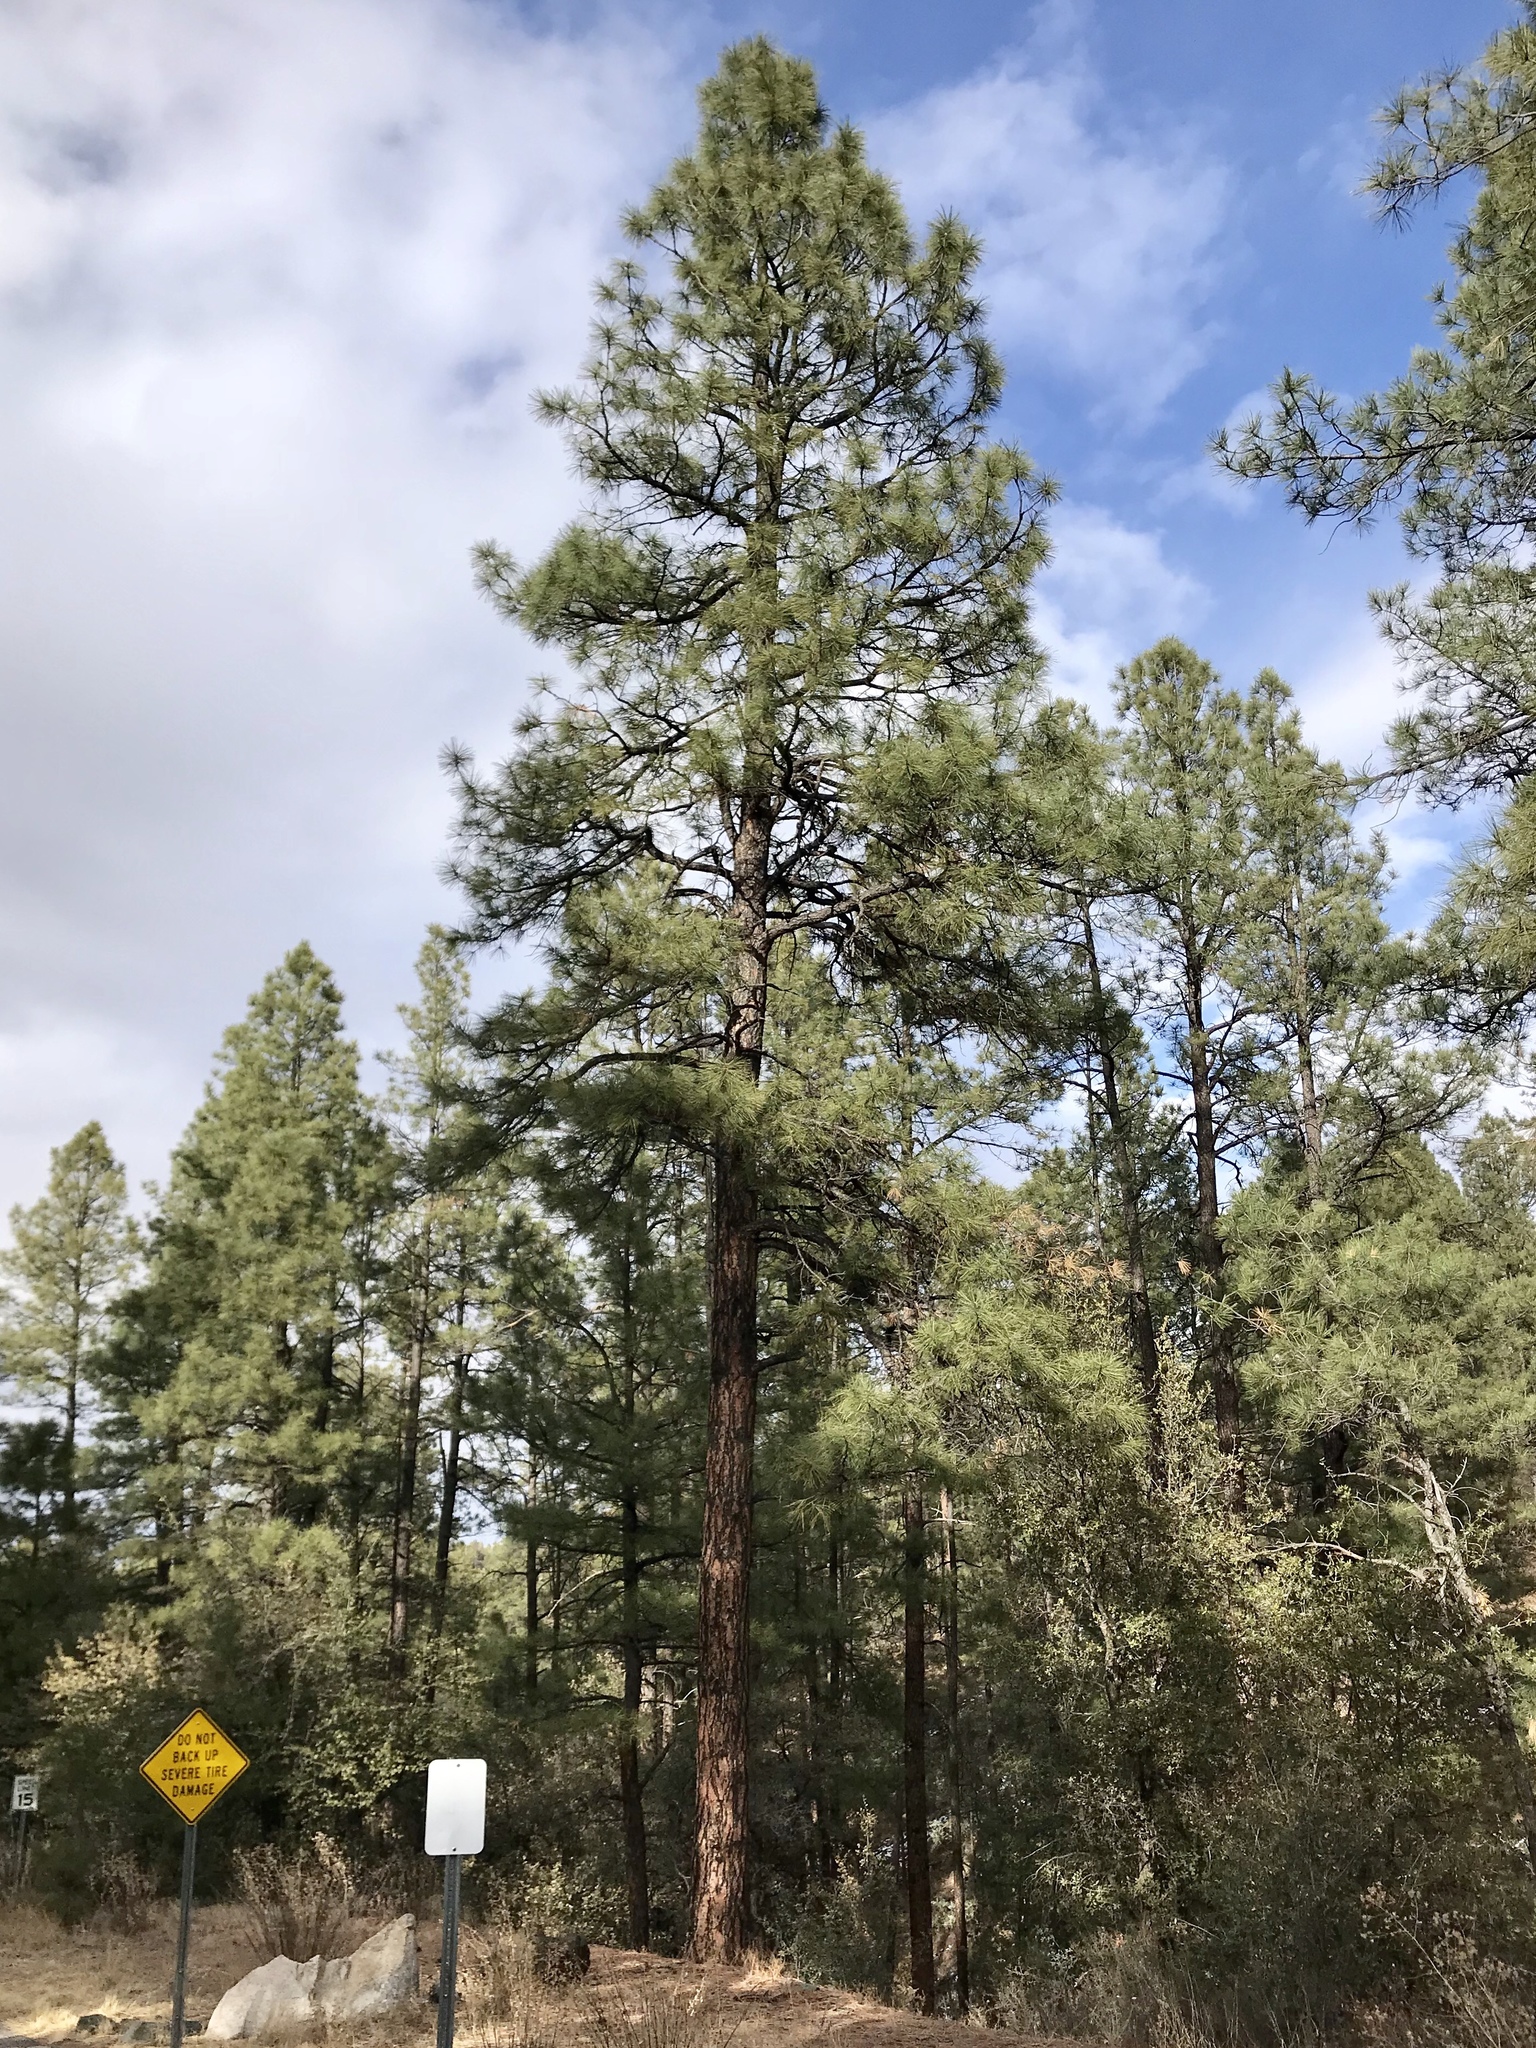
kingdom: Plantae
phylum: Tracheophyta
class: Pinopsida
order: Pinales
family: Pinaceae
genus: Pinus
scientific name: Pinus ponderosa
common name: Western yellow-pine
